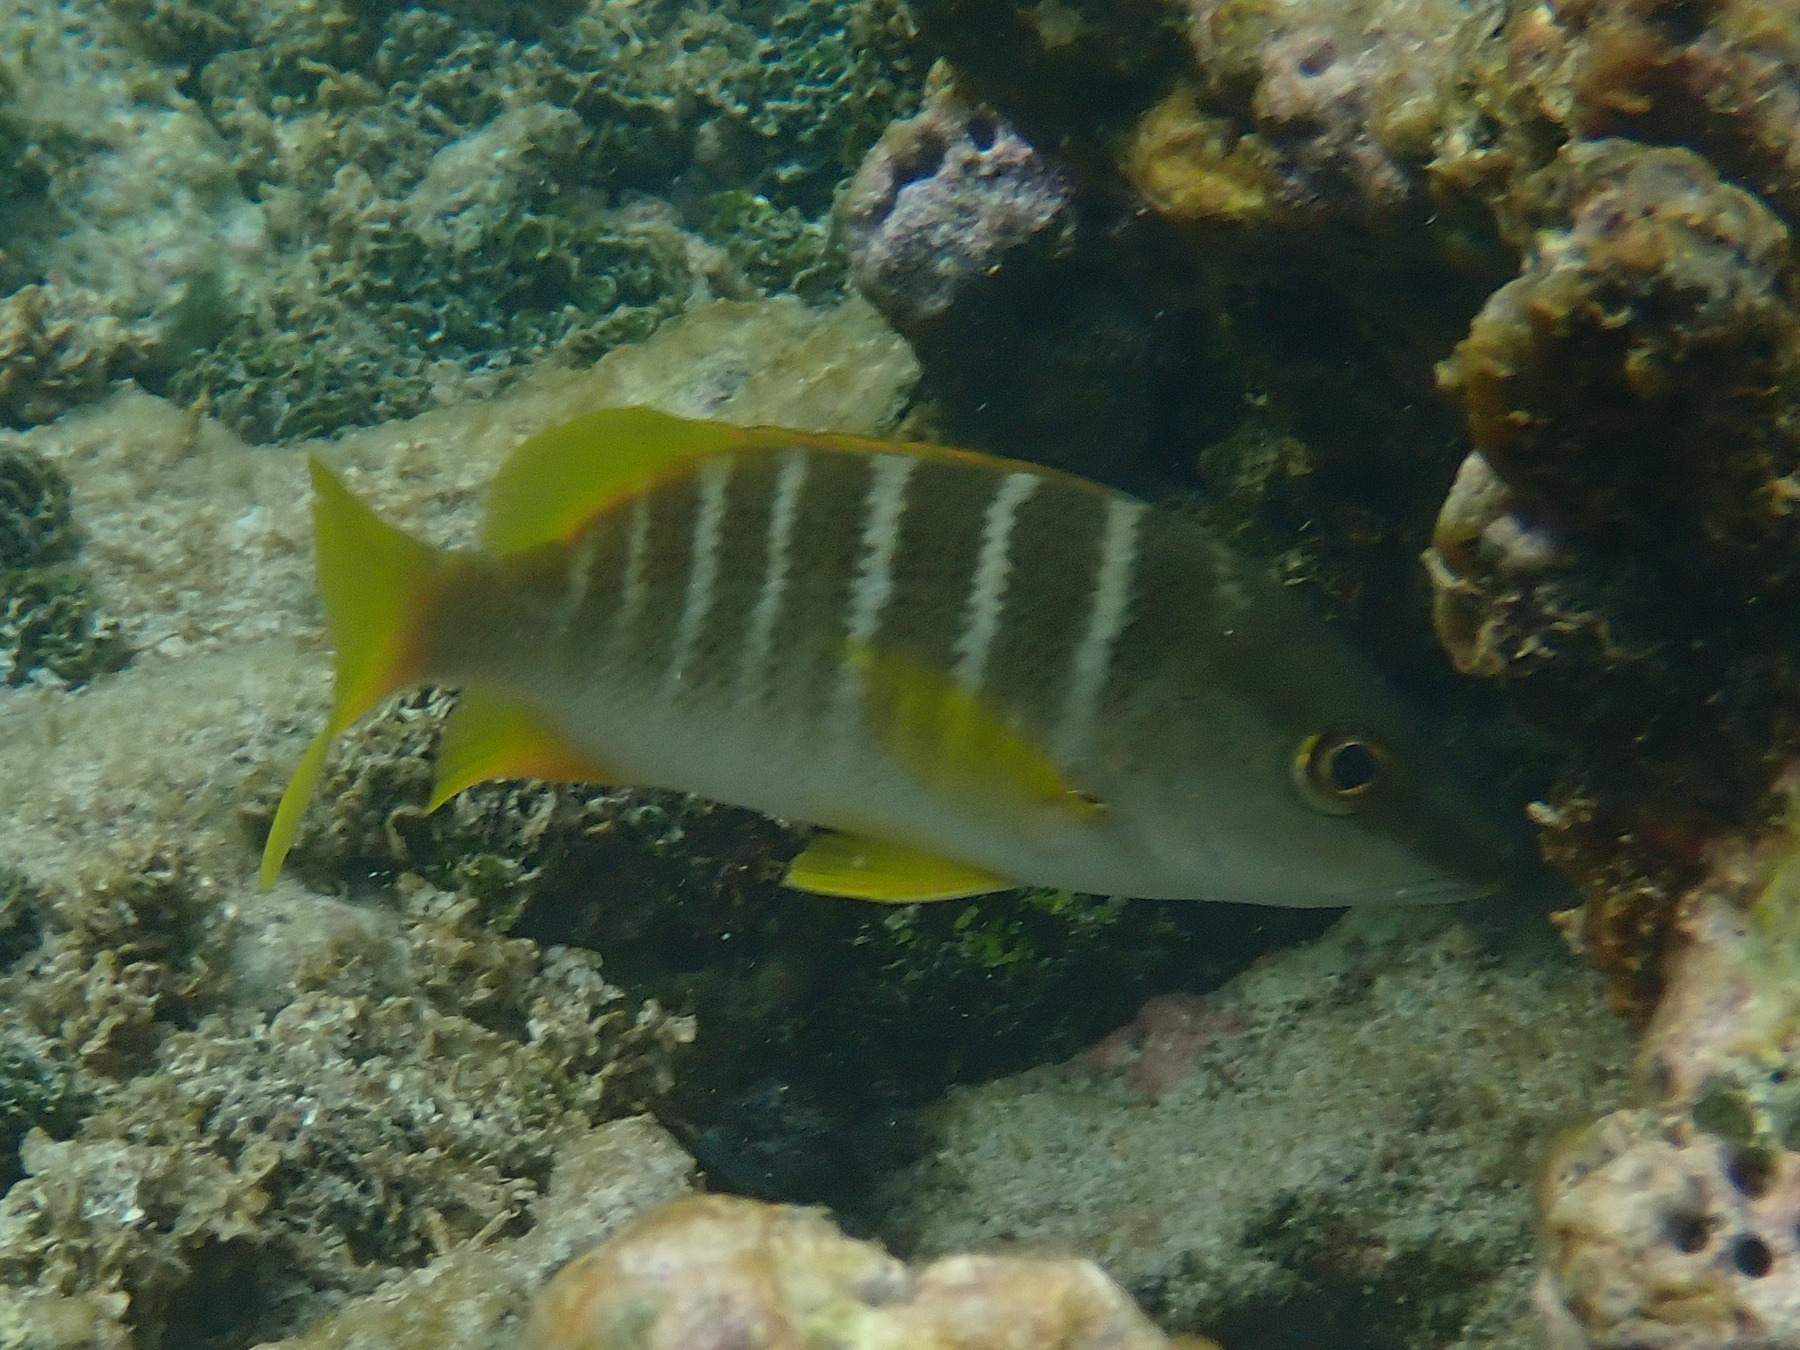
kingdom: Animalia
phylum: Chordata
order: Perciformes
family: Lutjanidae
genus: Lutjanus
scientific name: Lutjanus apodus
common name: Schoolmaster
